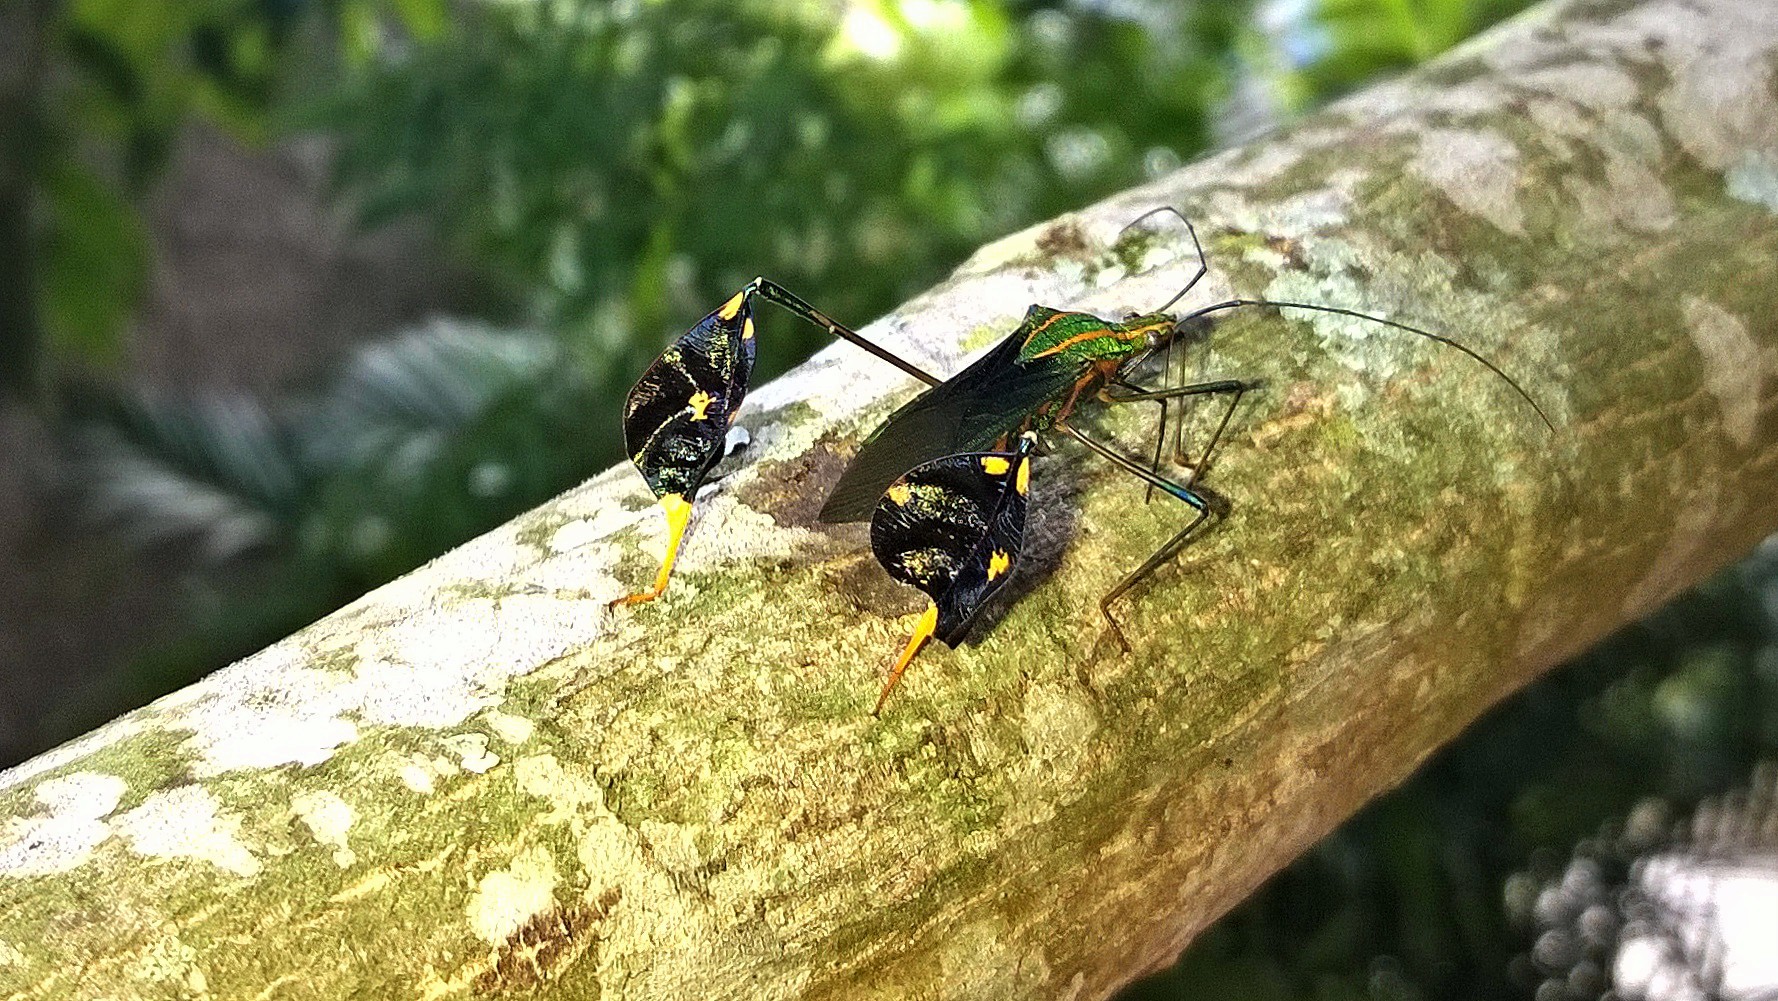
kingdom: Animalia
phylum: Arthropoda
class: Insecta
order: Hemiptera
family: Coreidae
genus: Diactor
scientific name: Diactor bilineatus
